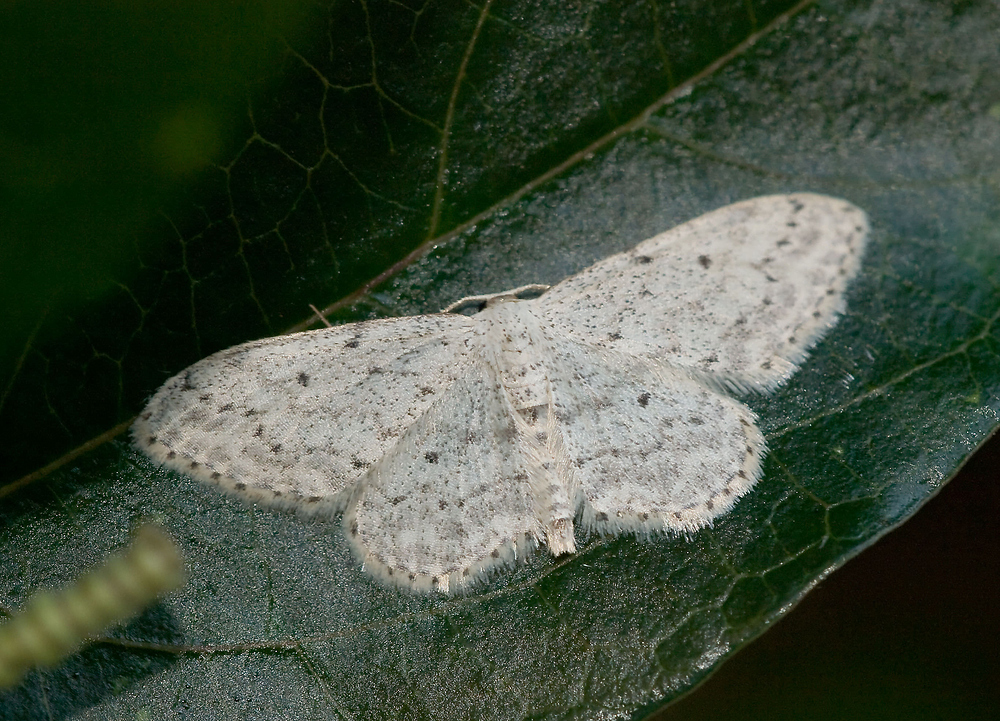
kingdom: Animalia
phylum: Arthropoda
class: Insecta
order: Lepidoptera
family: Geometridae
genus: Idaea
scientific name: Idaea seriata
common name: Small dusty wave
